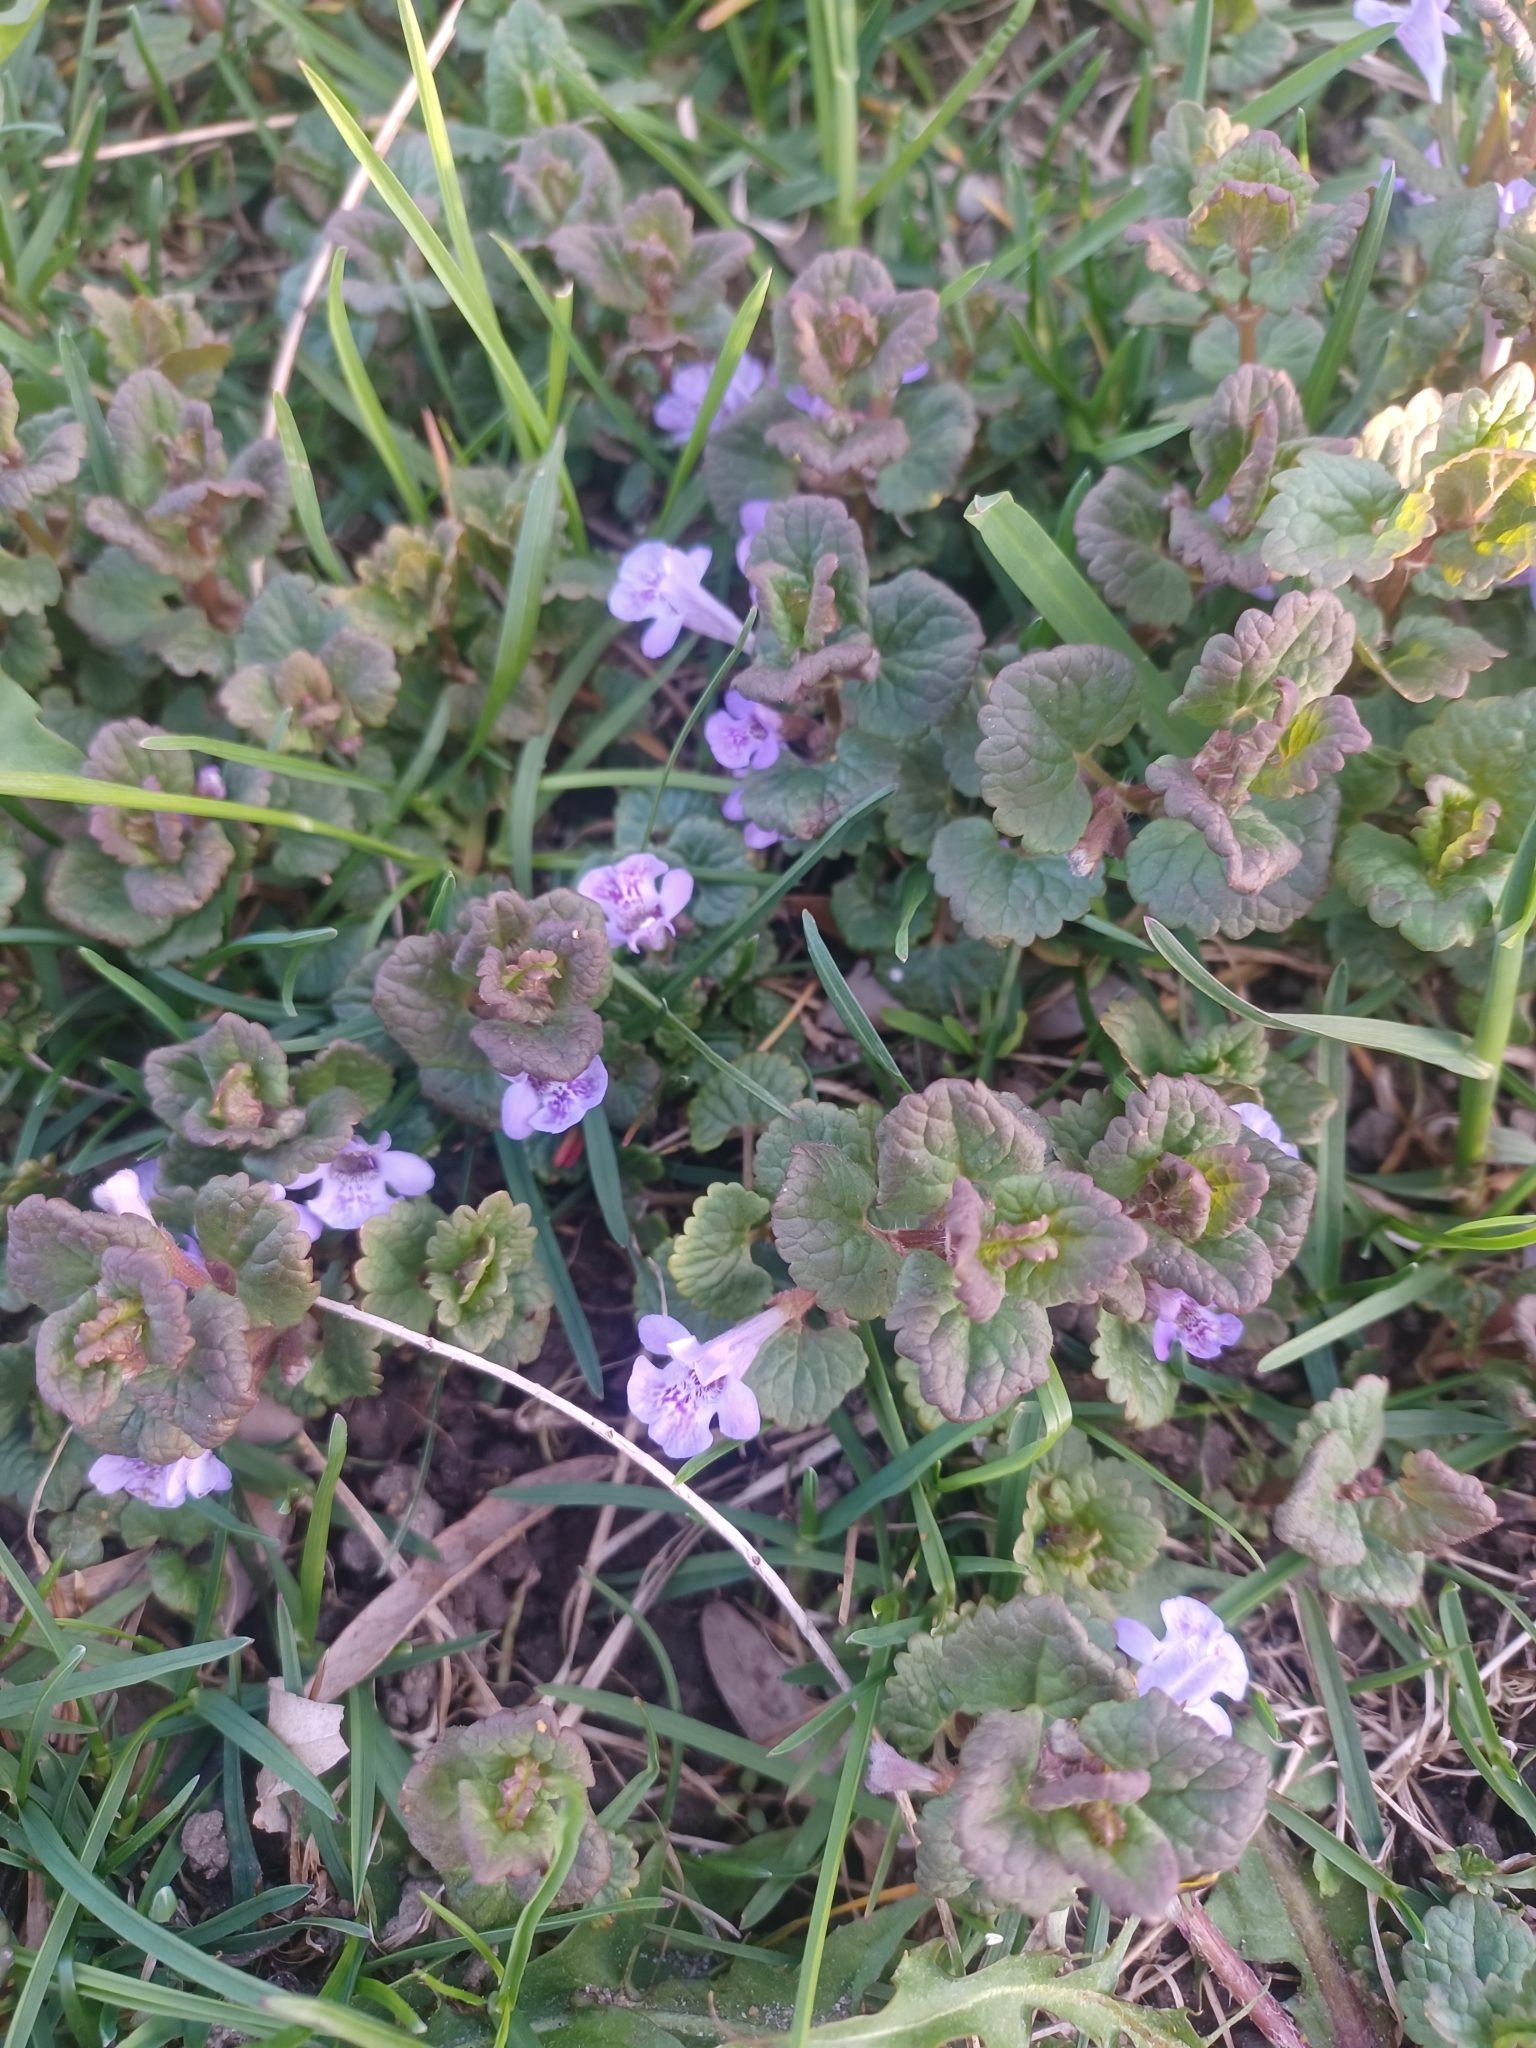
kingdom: Plantae
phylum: Tracheophyta
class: Magnoliopsida
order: Lamiales
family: Lamiaceae
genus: Glechoma
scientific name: Glechoma hederacea
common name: Ground ivy
